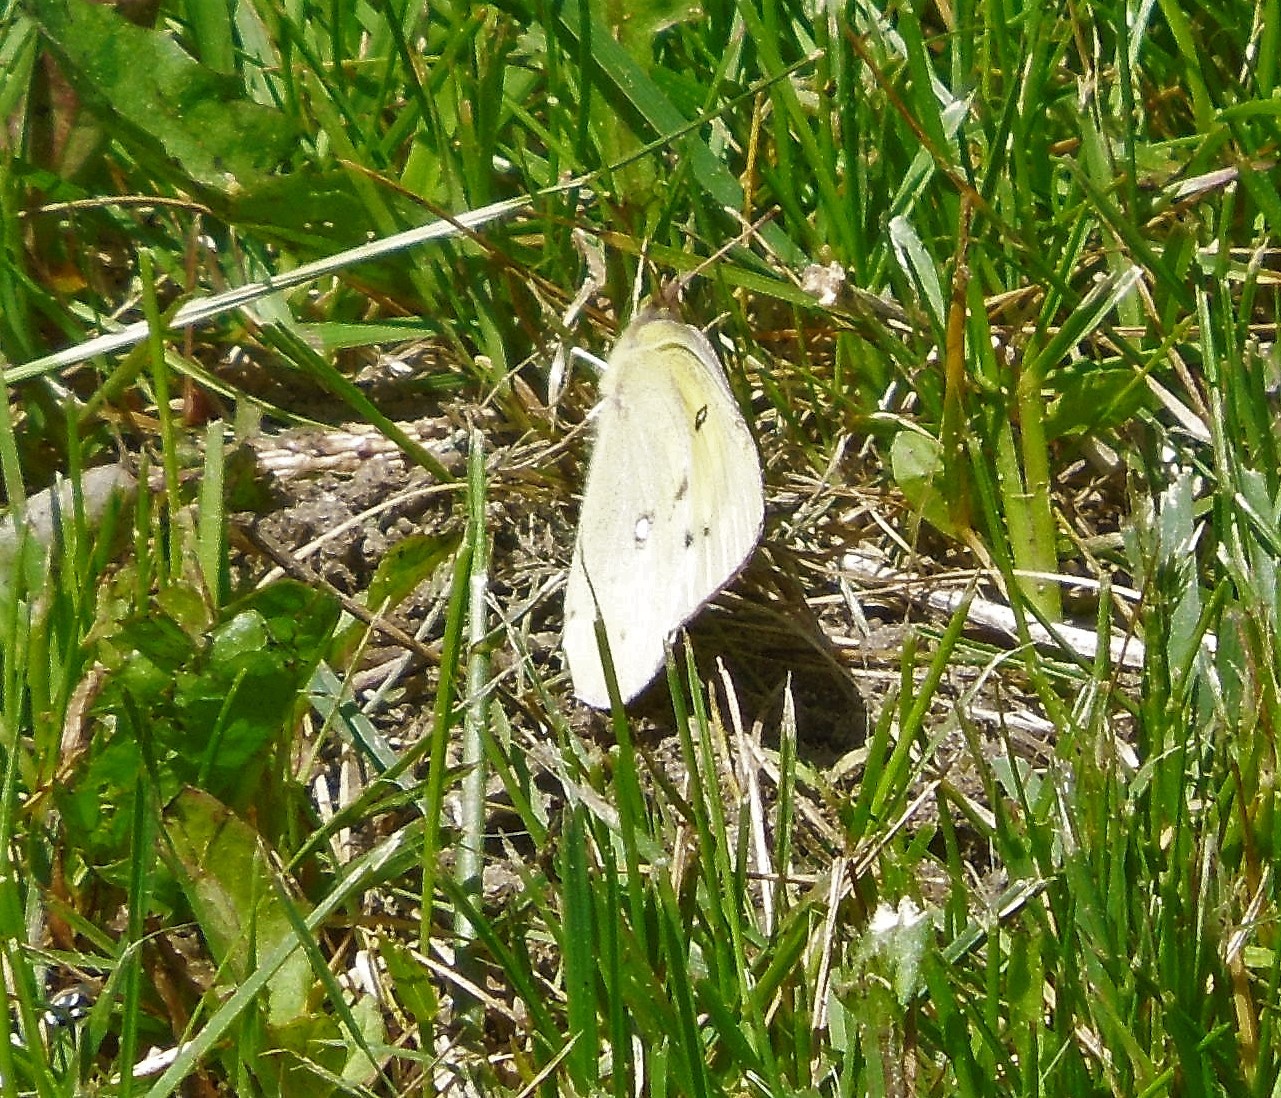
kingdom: Animalia
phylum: Arthropoda
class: Insecta
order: Lepidoptera
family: Pieridae
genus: Colias
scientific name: Colias philodice
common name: Clouded sulphur
